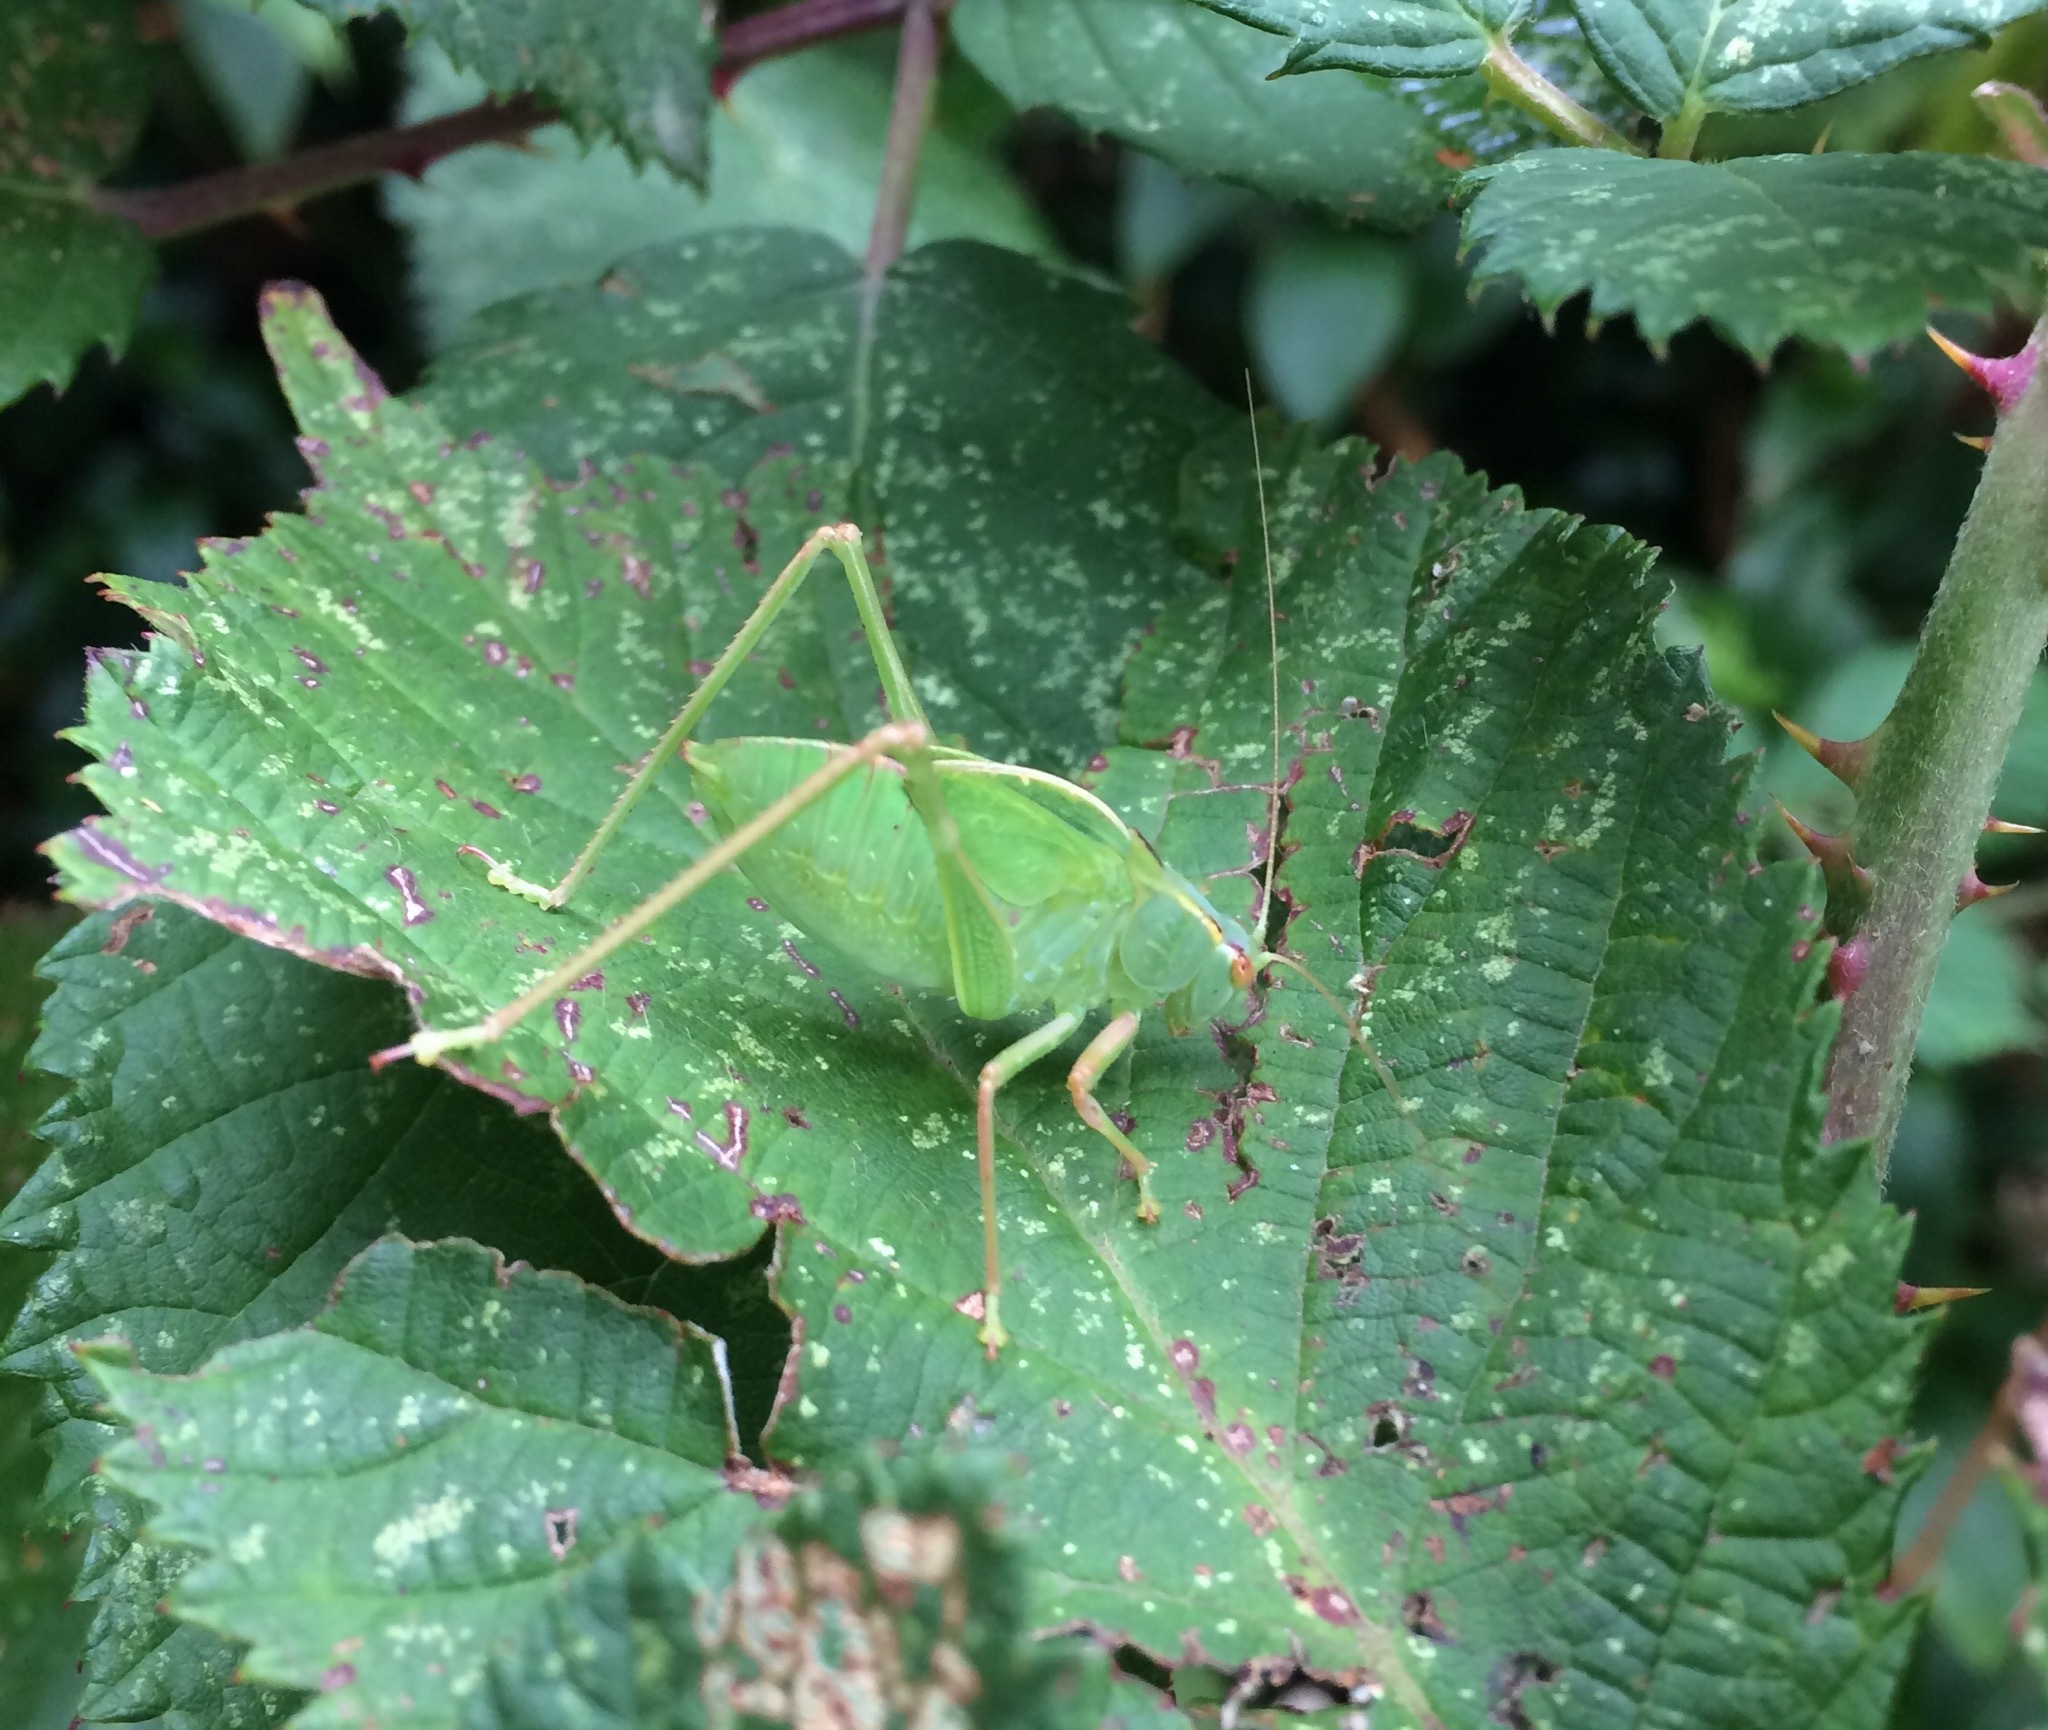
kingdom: Animalia
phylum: Arthropoda
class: Insecta
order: Orthoptera
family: Tettigoniidae
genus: Caedicia
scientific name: Caedicia simplex
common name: Common garden katydid
